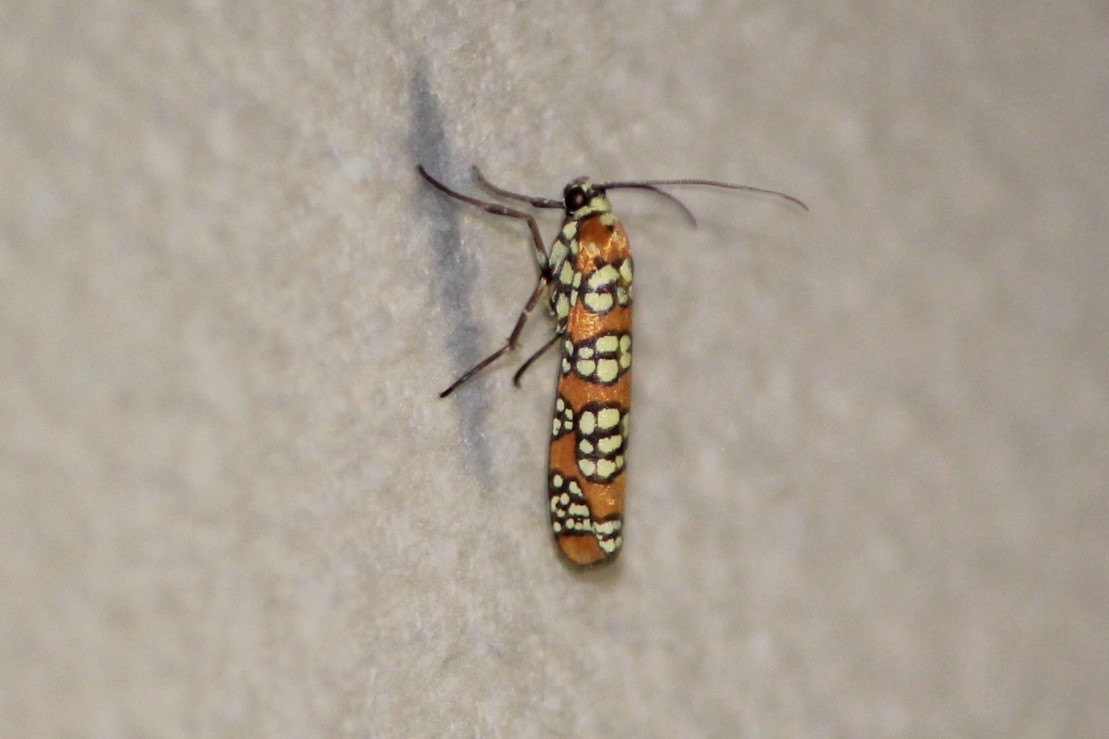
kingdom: Animalia
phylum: Arthropoda
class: Insecta
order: Lepidoptera
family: Attevidae
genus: Atteva
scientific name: Atteva punctella
